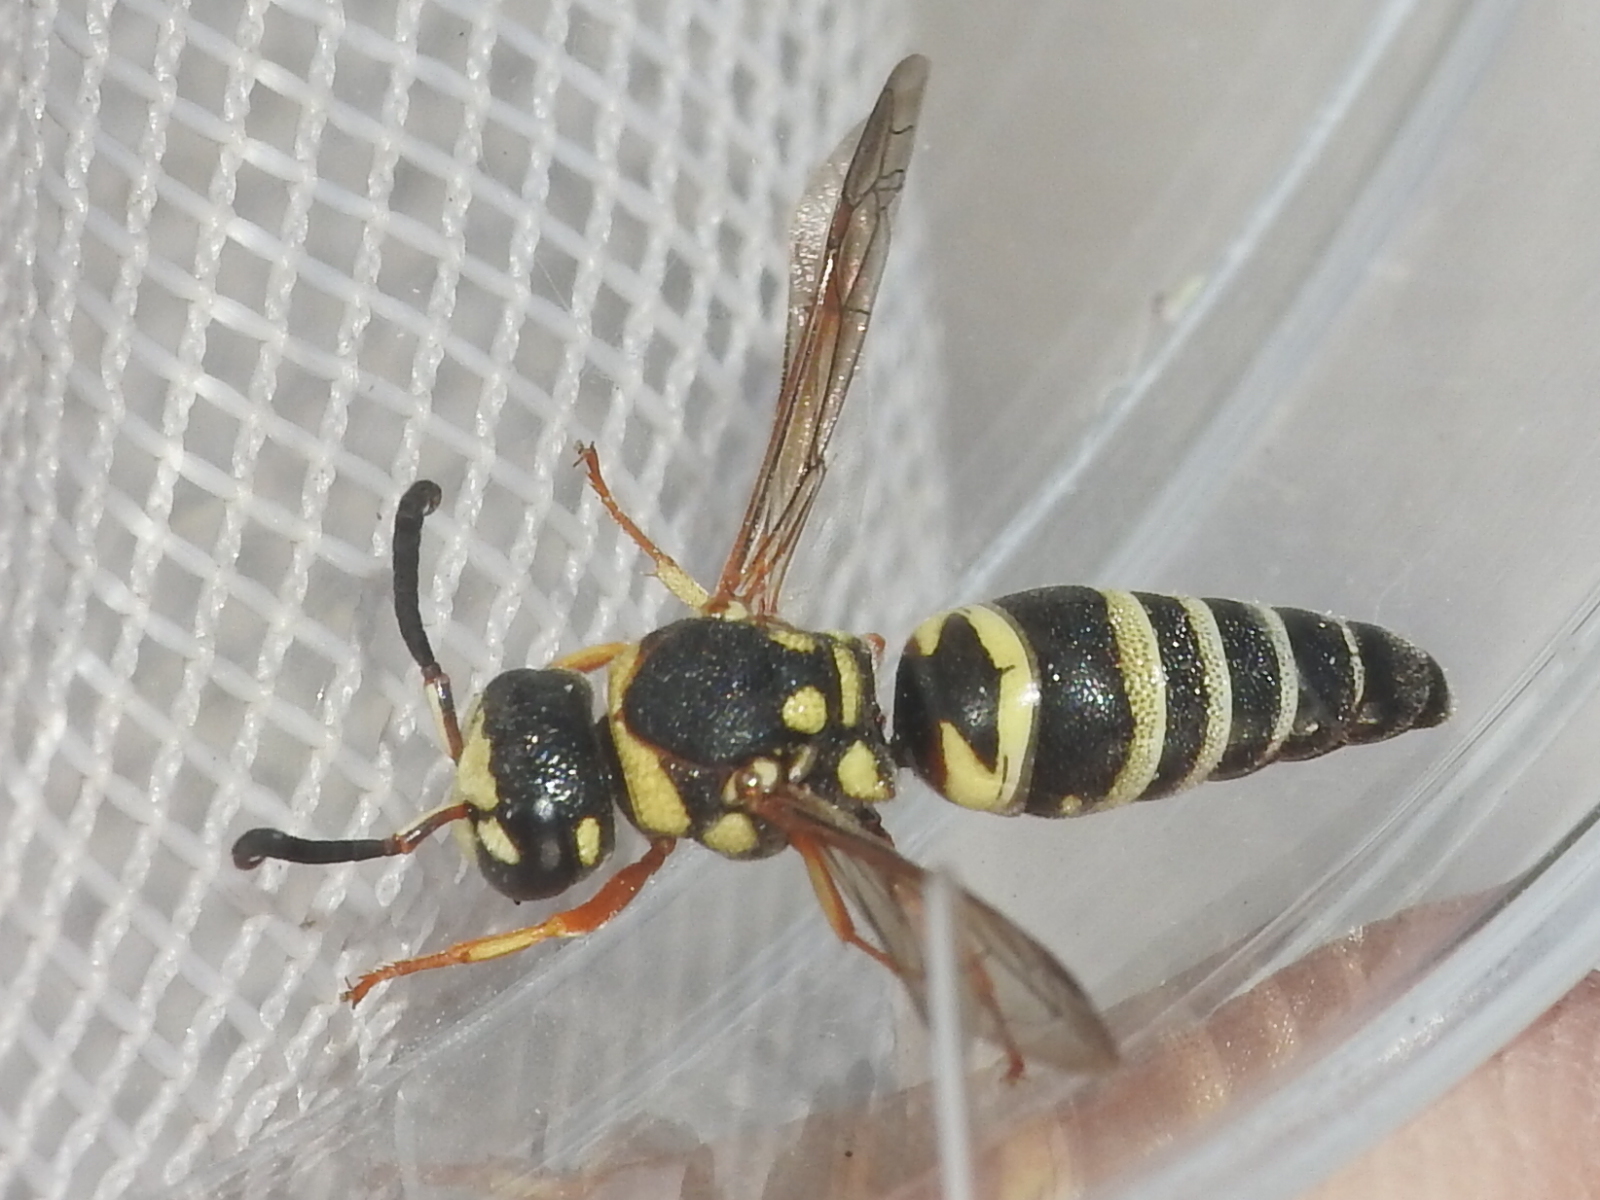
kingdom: Animalia
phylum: Arthropoda
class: Insecta
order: Hymenoptera
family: Eumenidae
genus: Euodynerus
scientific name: Euodynerus annulatus
